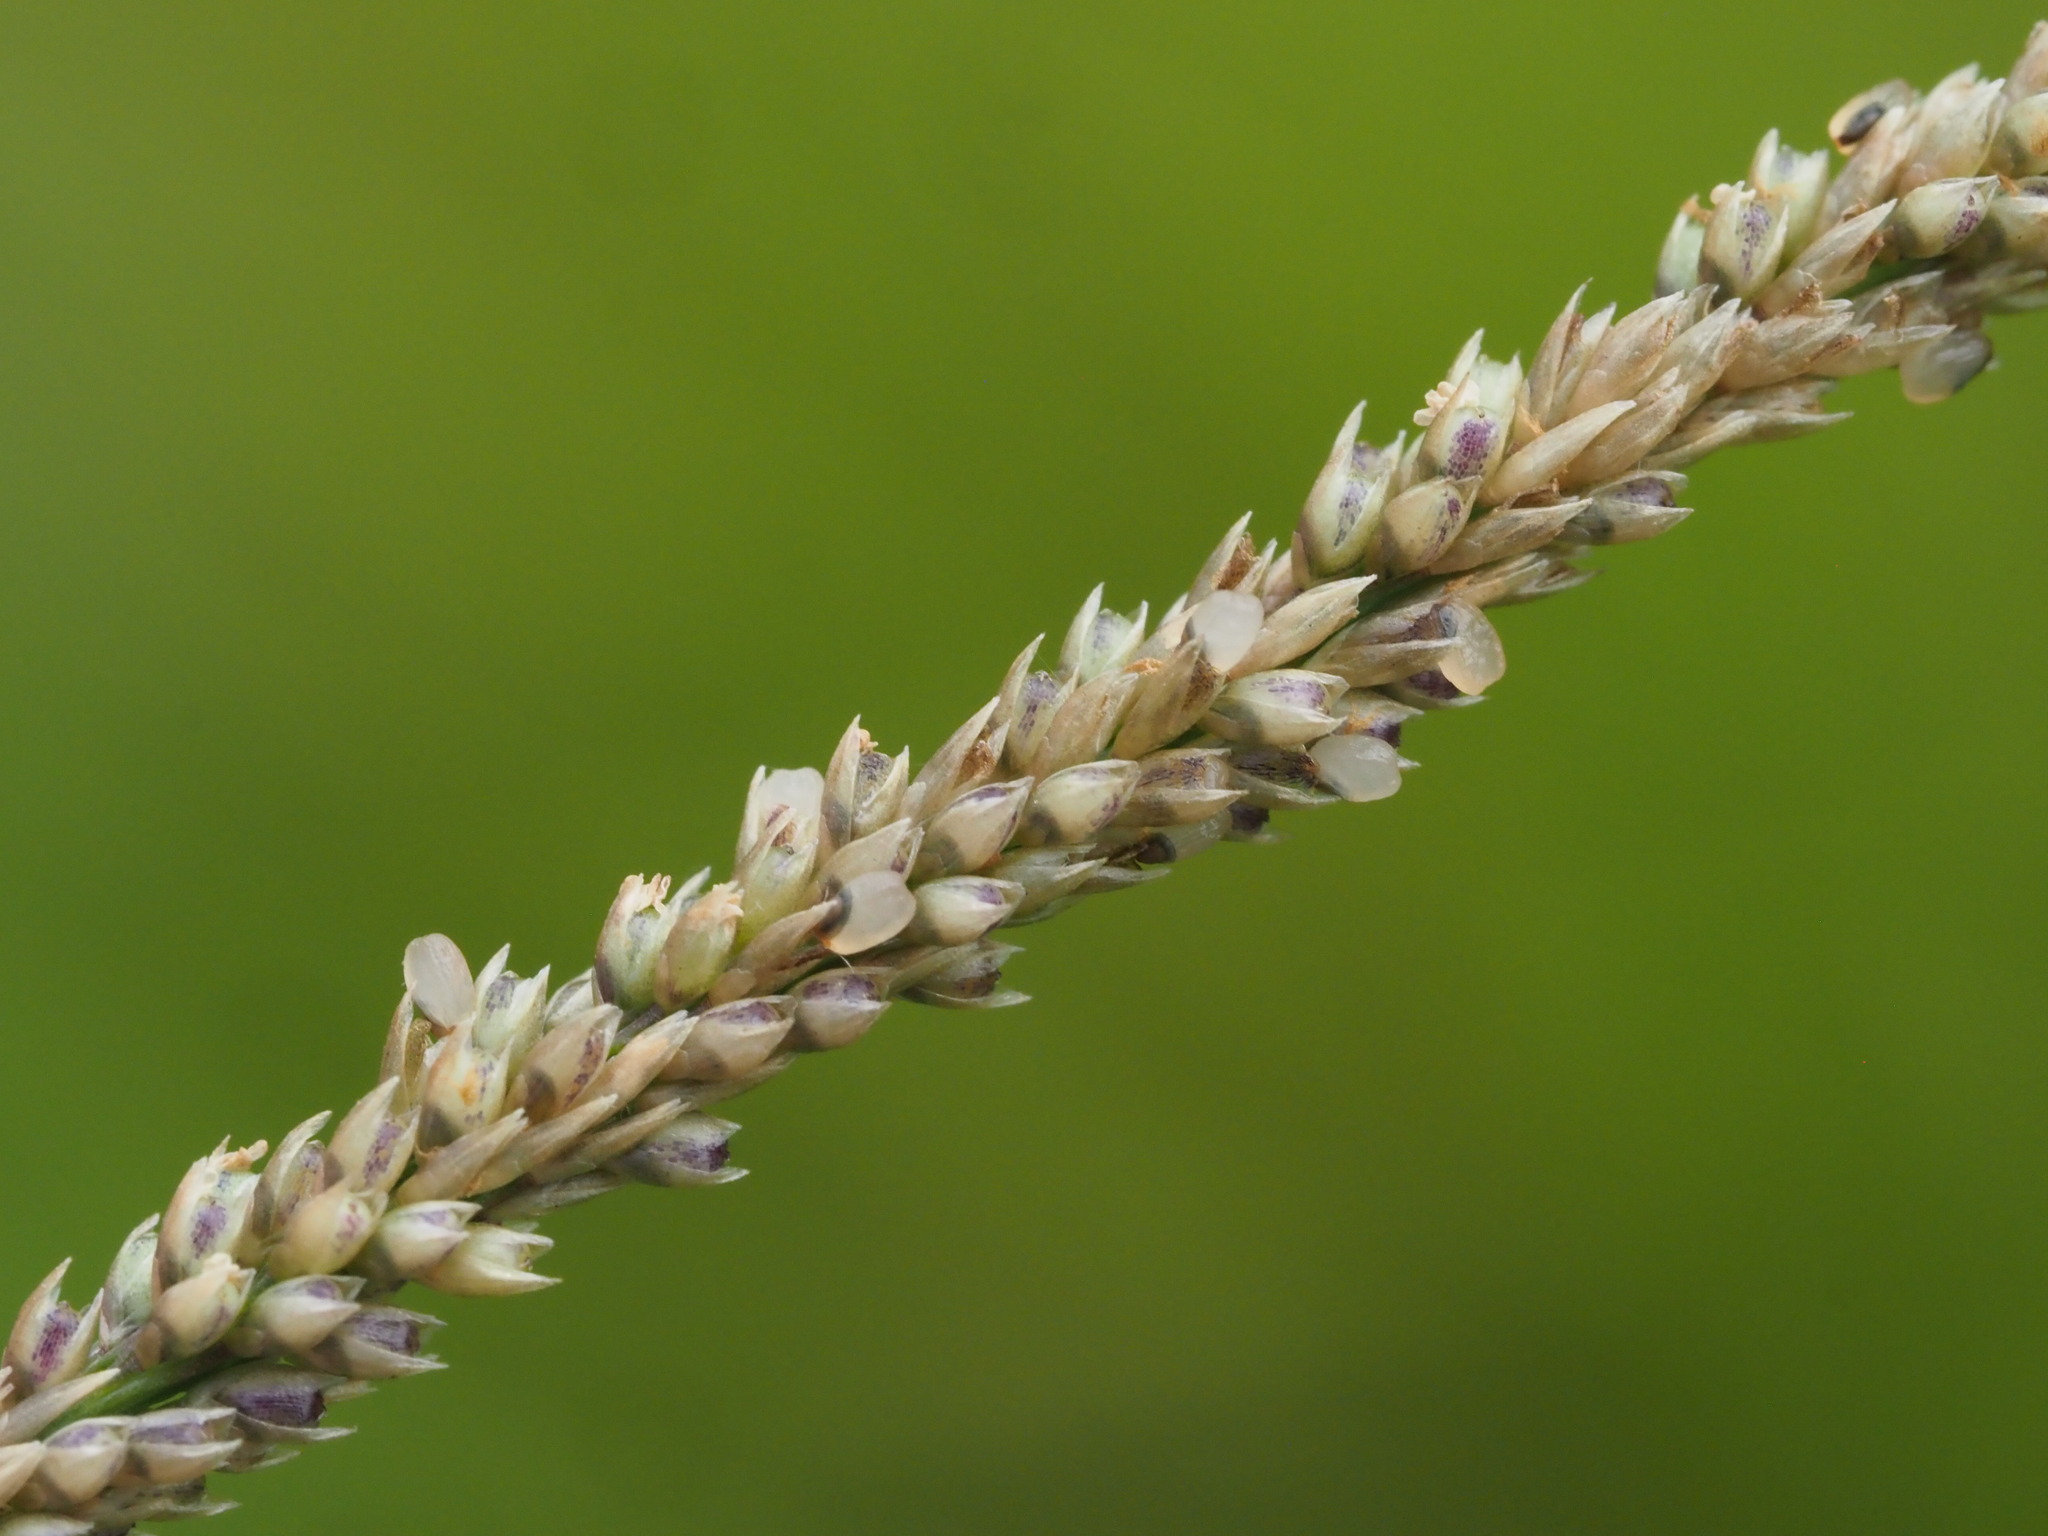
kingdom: Plantae
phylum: Tracheophyta
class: Liliopsida
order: Poales
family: Poaceae
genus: Sporobolus
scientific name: Sporobolus fertilis
